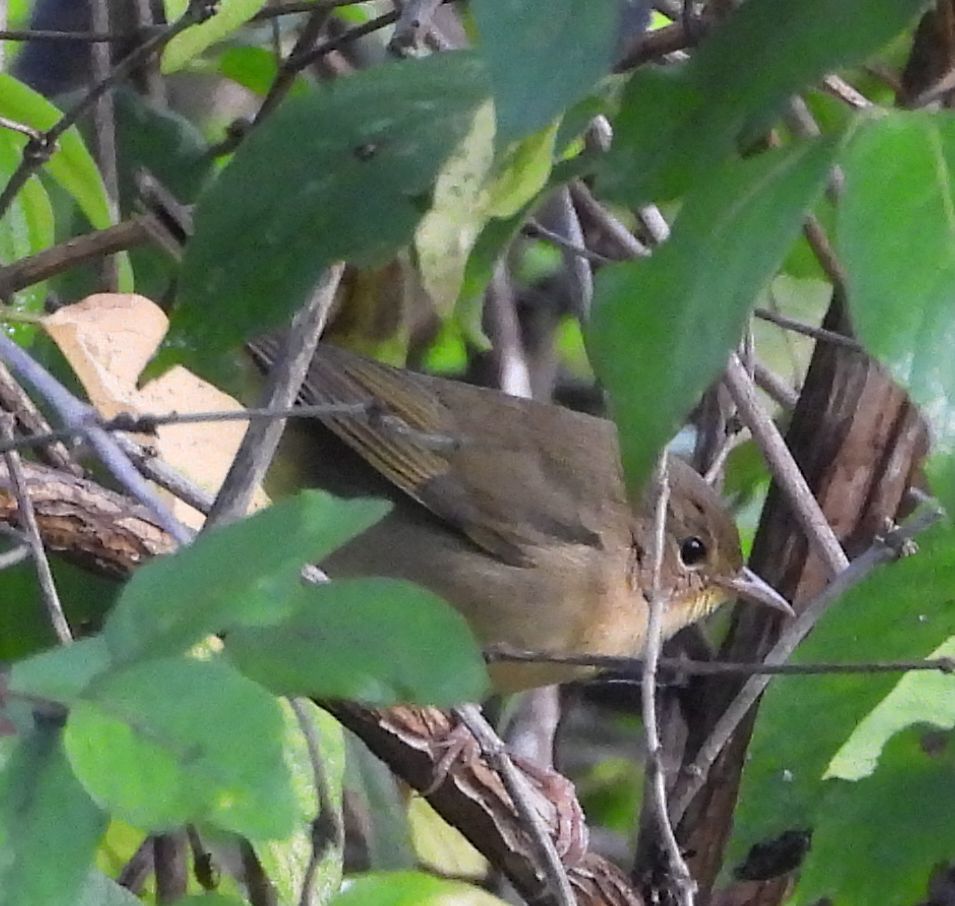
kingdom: Animalia
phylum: Chordata
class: Aves
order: Passeriformes
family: Parulidae
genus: Geothlypis
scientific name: Geothlypis trichas
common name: Common yellowthroat
